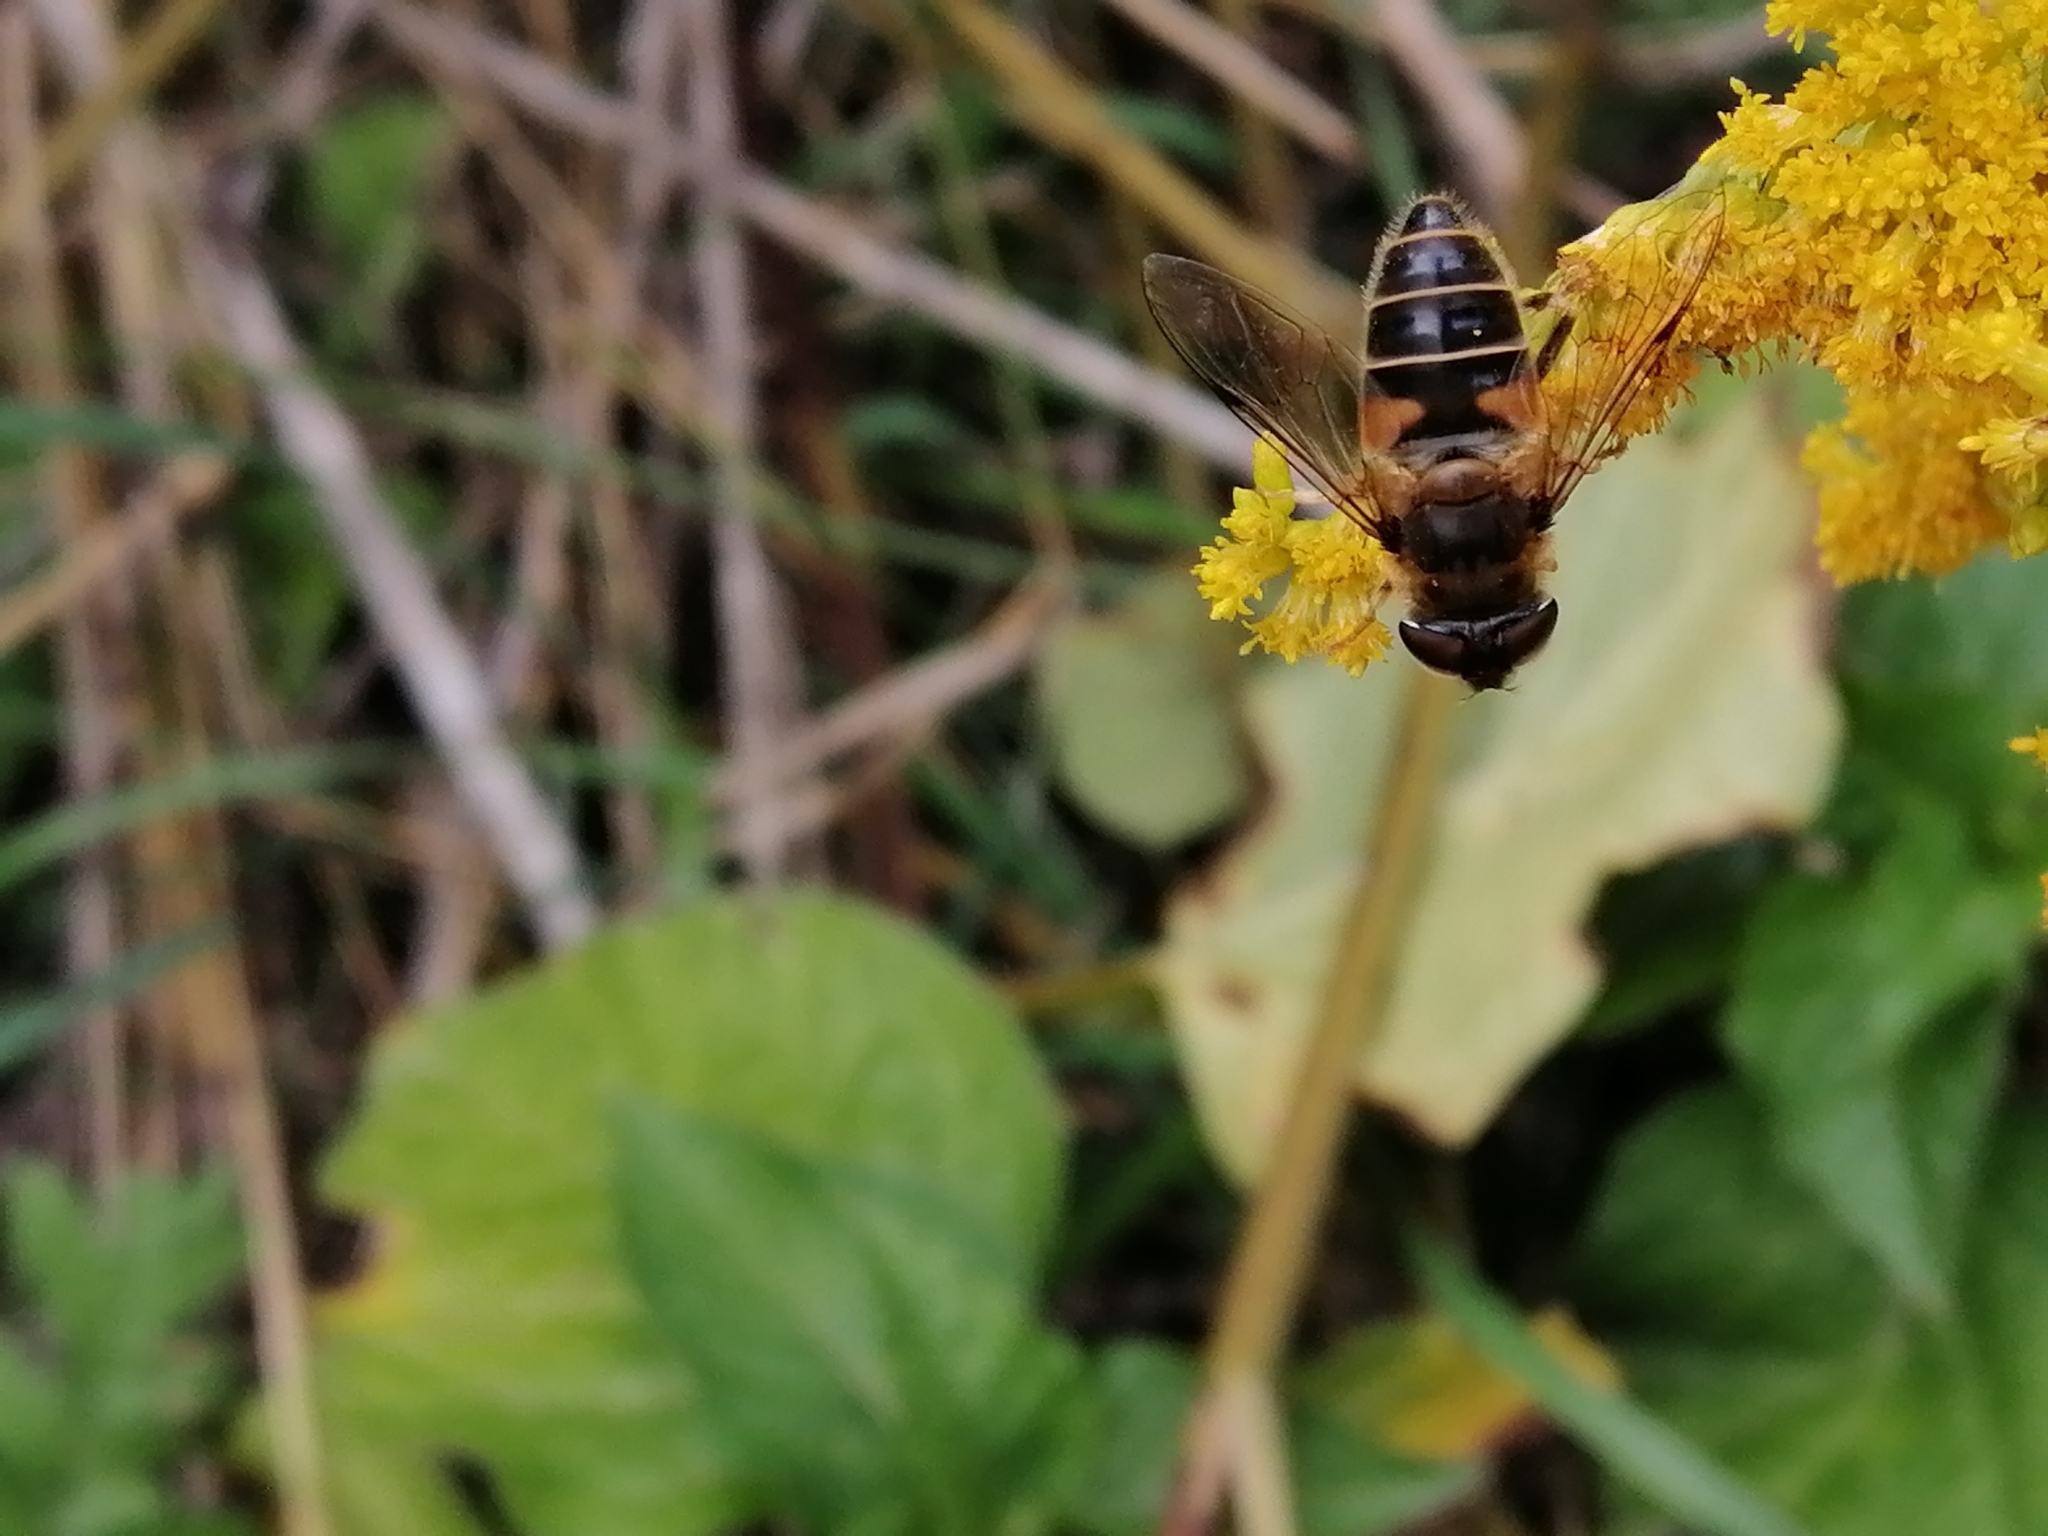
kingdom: Animalia
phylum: Arthropoda
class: Insecta
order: Diptera
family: Syrphidae
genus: Eristalis
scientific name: Eristalis pertinax
